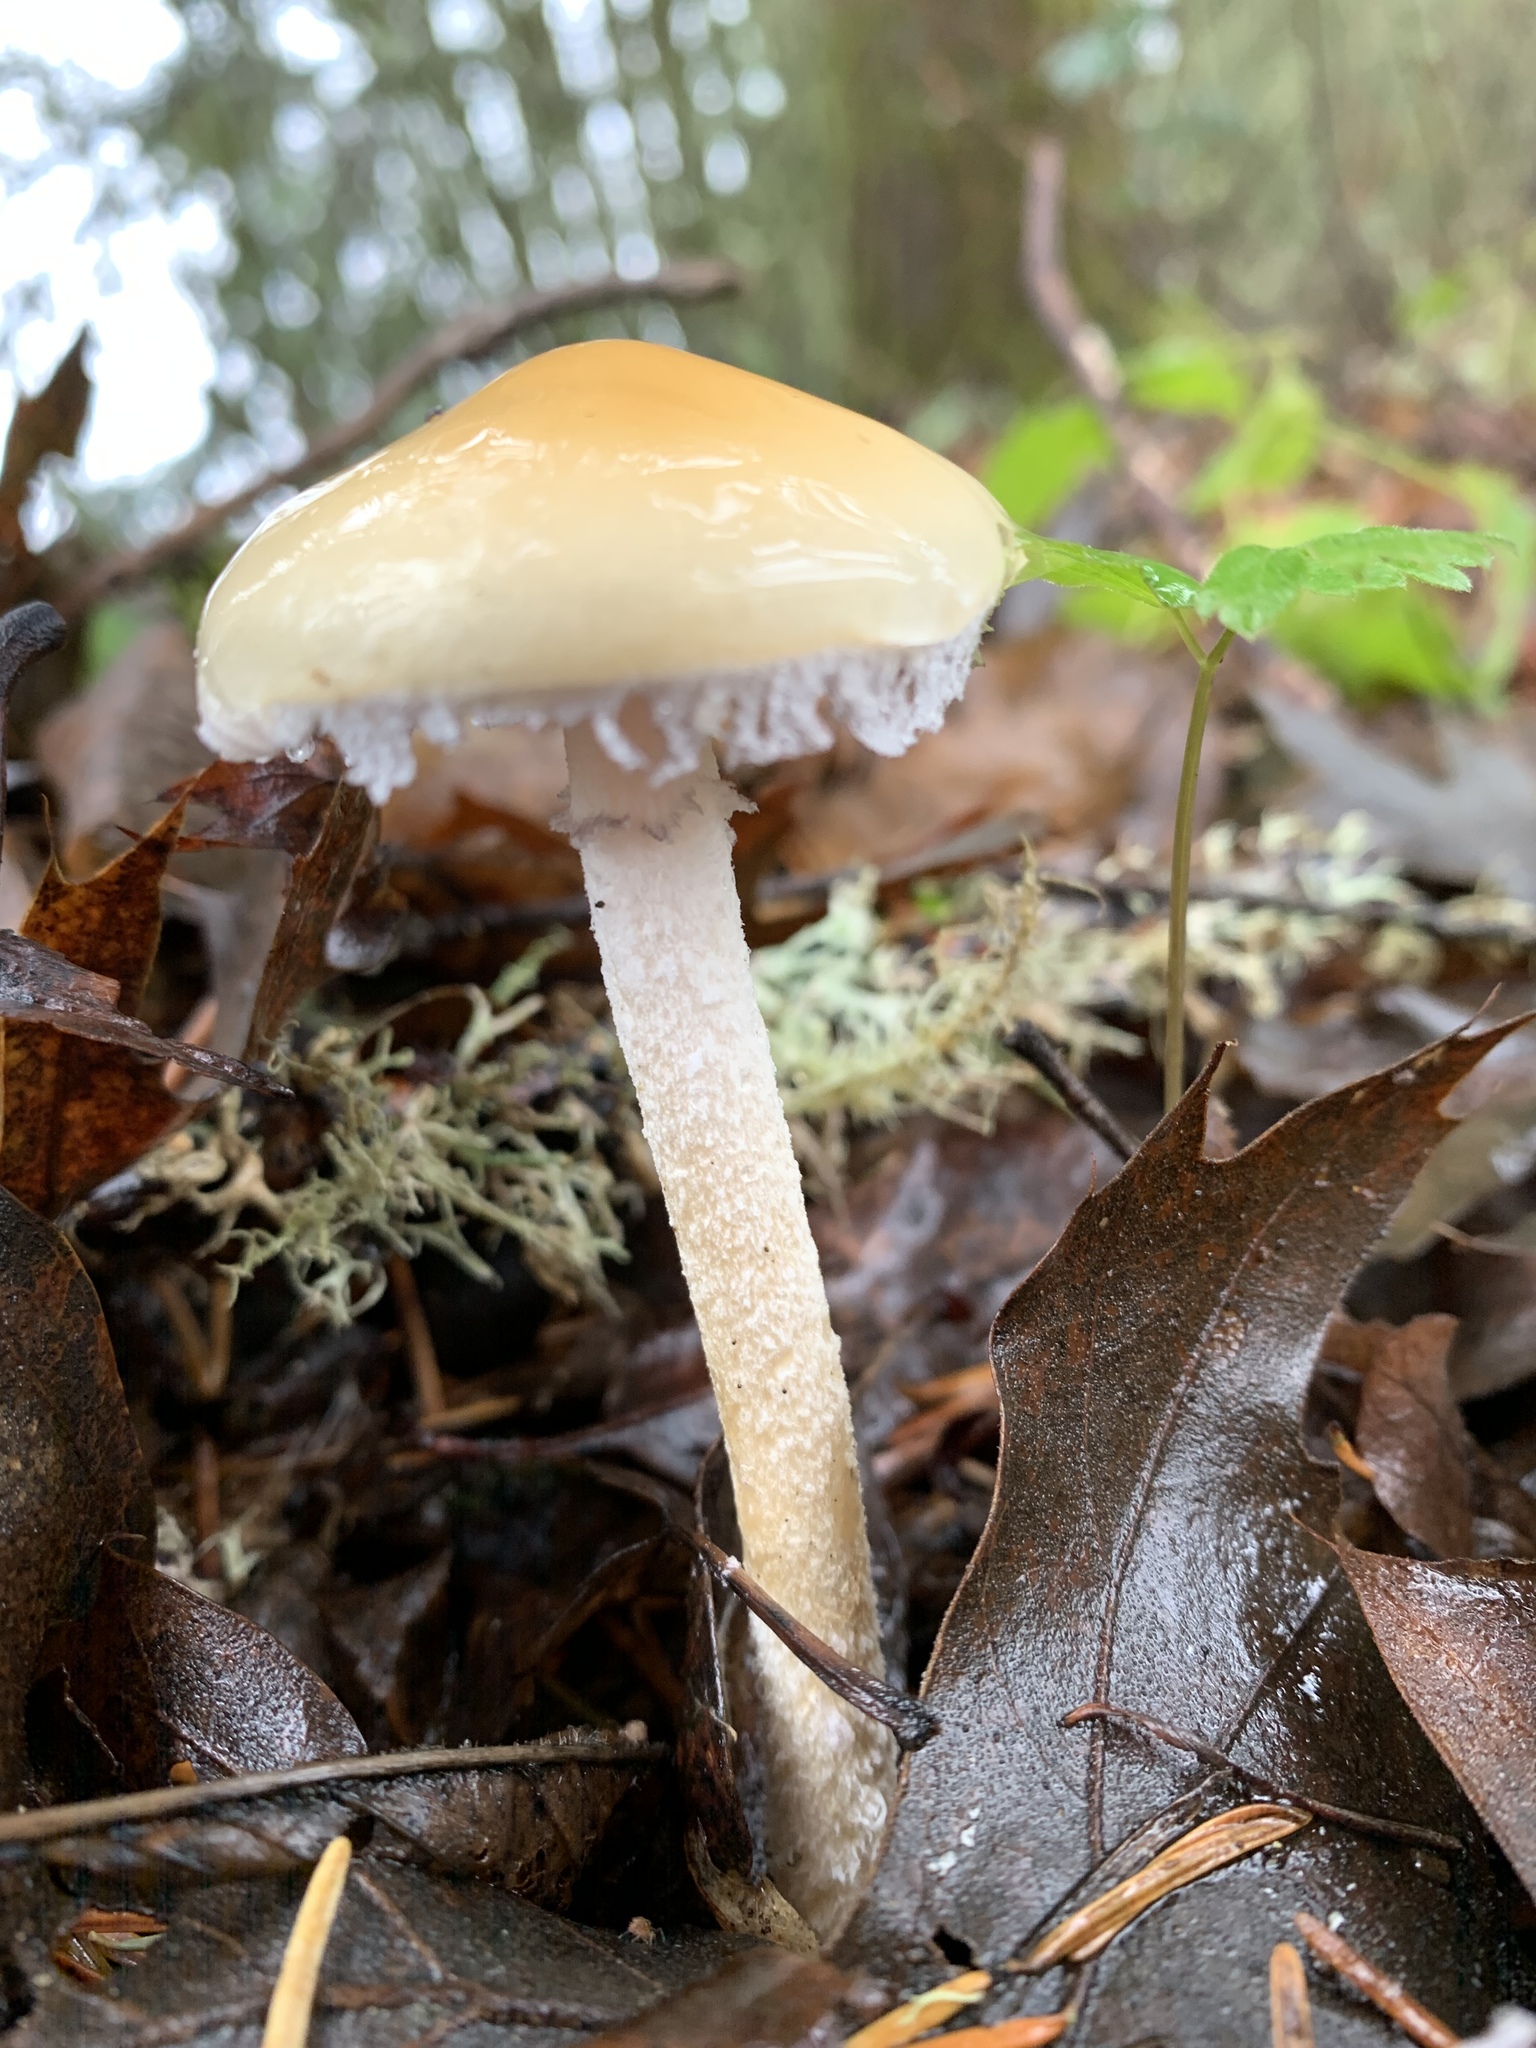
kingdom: Fungi
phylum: Basidiomycota
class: Agaricomycetes
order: Agaricales
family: Strophariaceae
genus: Stropharia
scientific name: Stropharia ambigua
